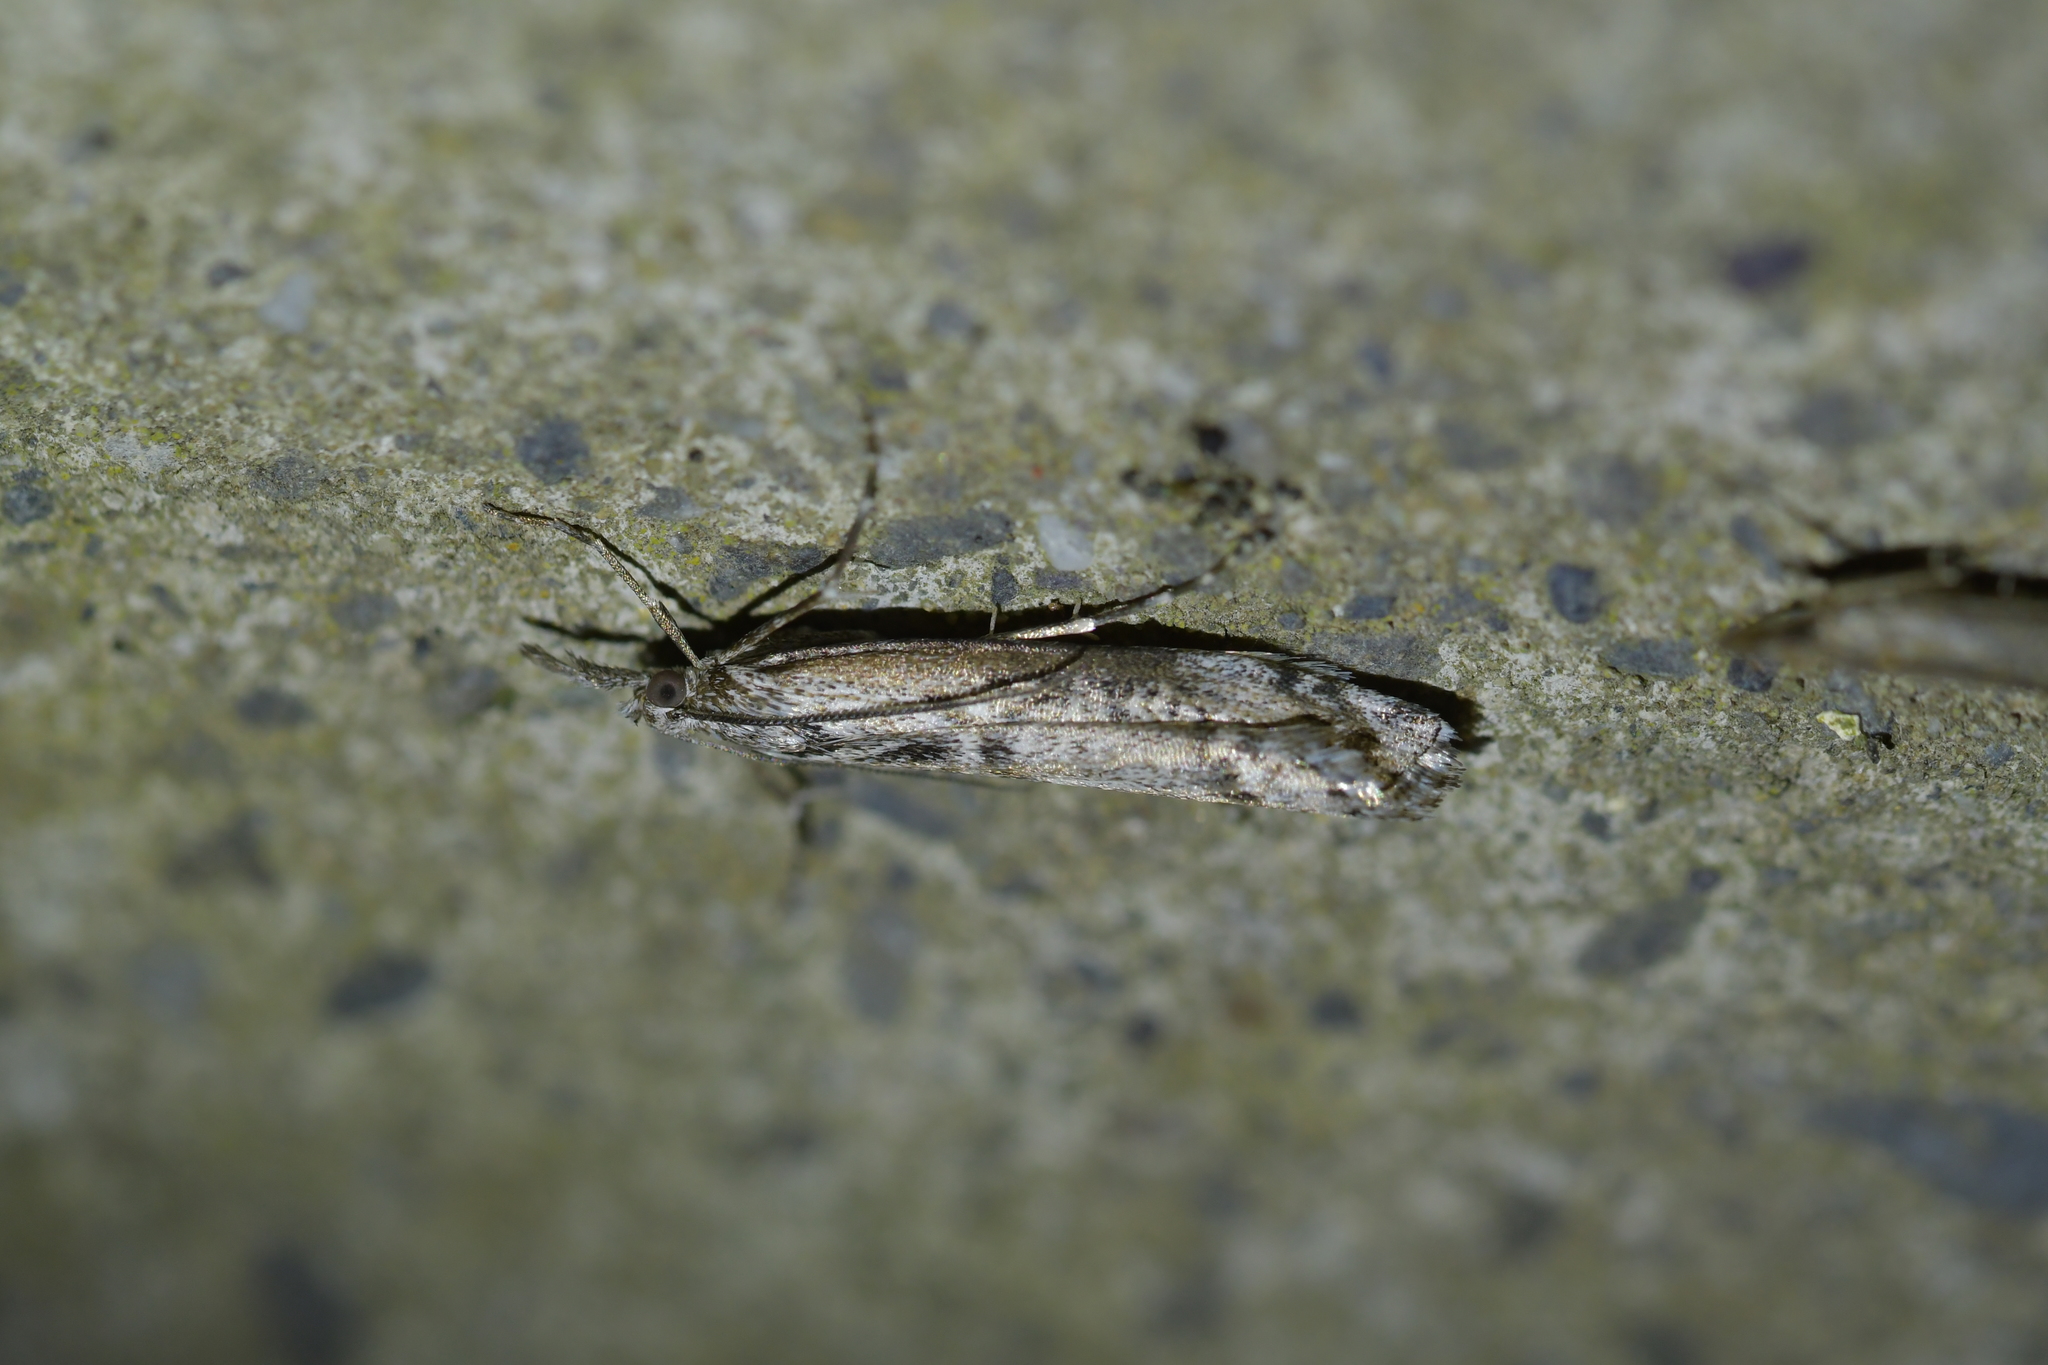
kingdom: Animalia
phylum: Arthropoda
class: Insecta
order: Lepidoptera
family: Crambidae
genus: Orocrambus
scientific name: Orocrambus cyclopicus
